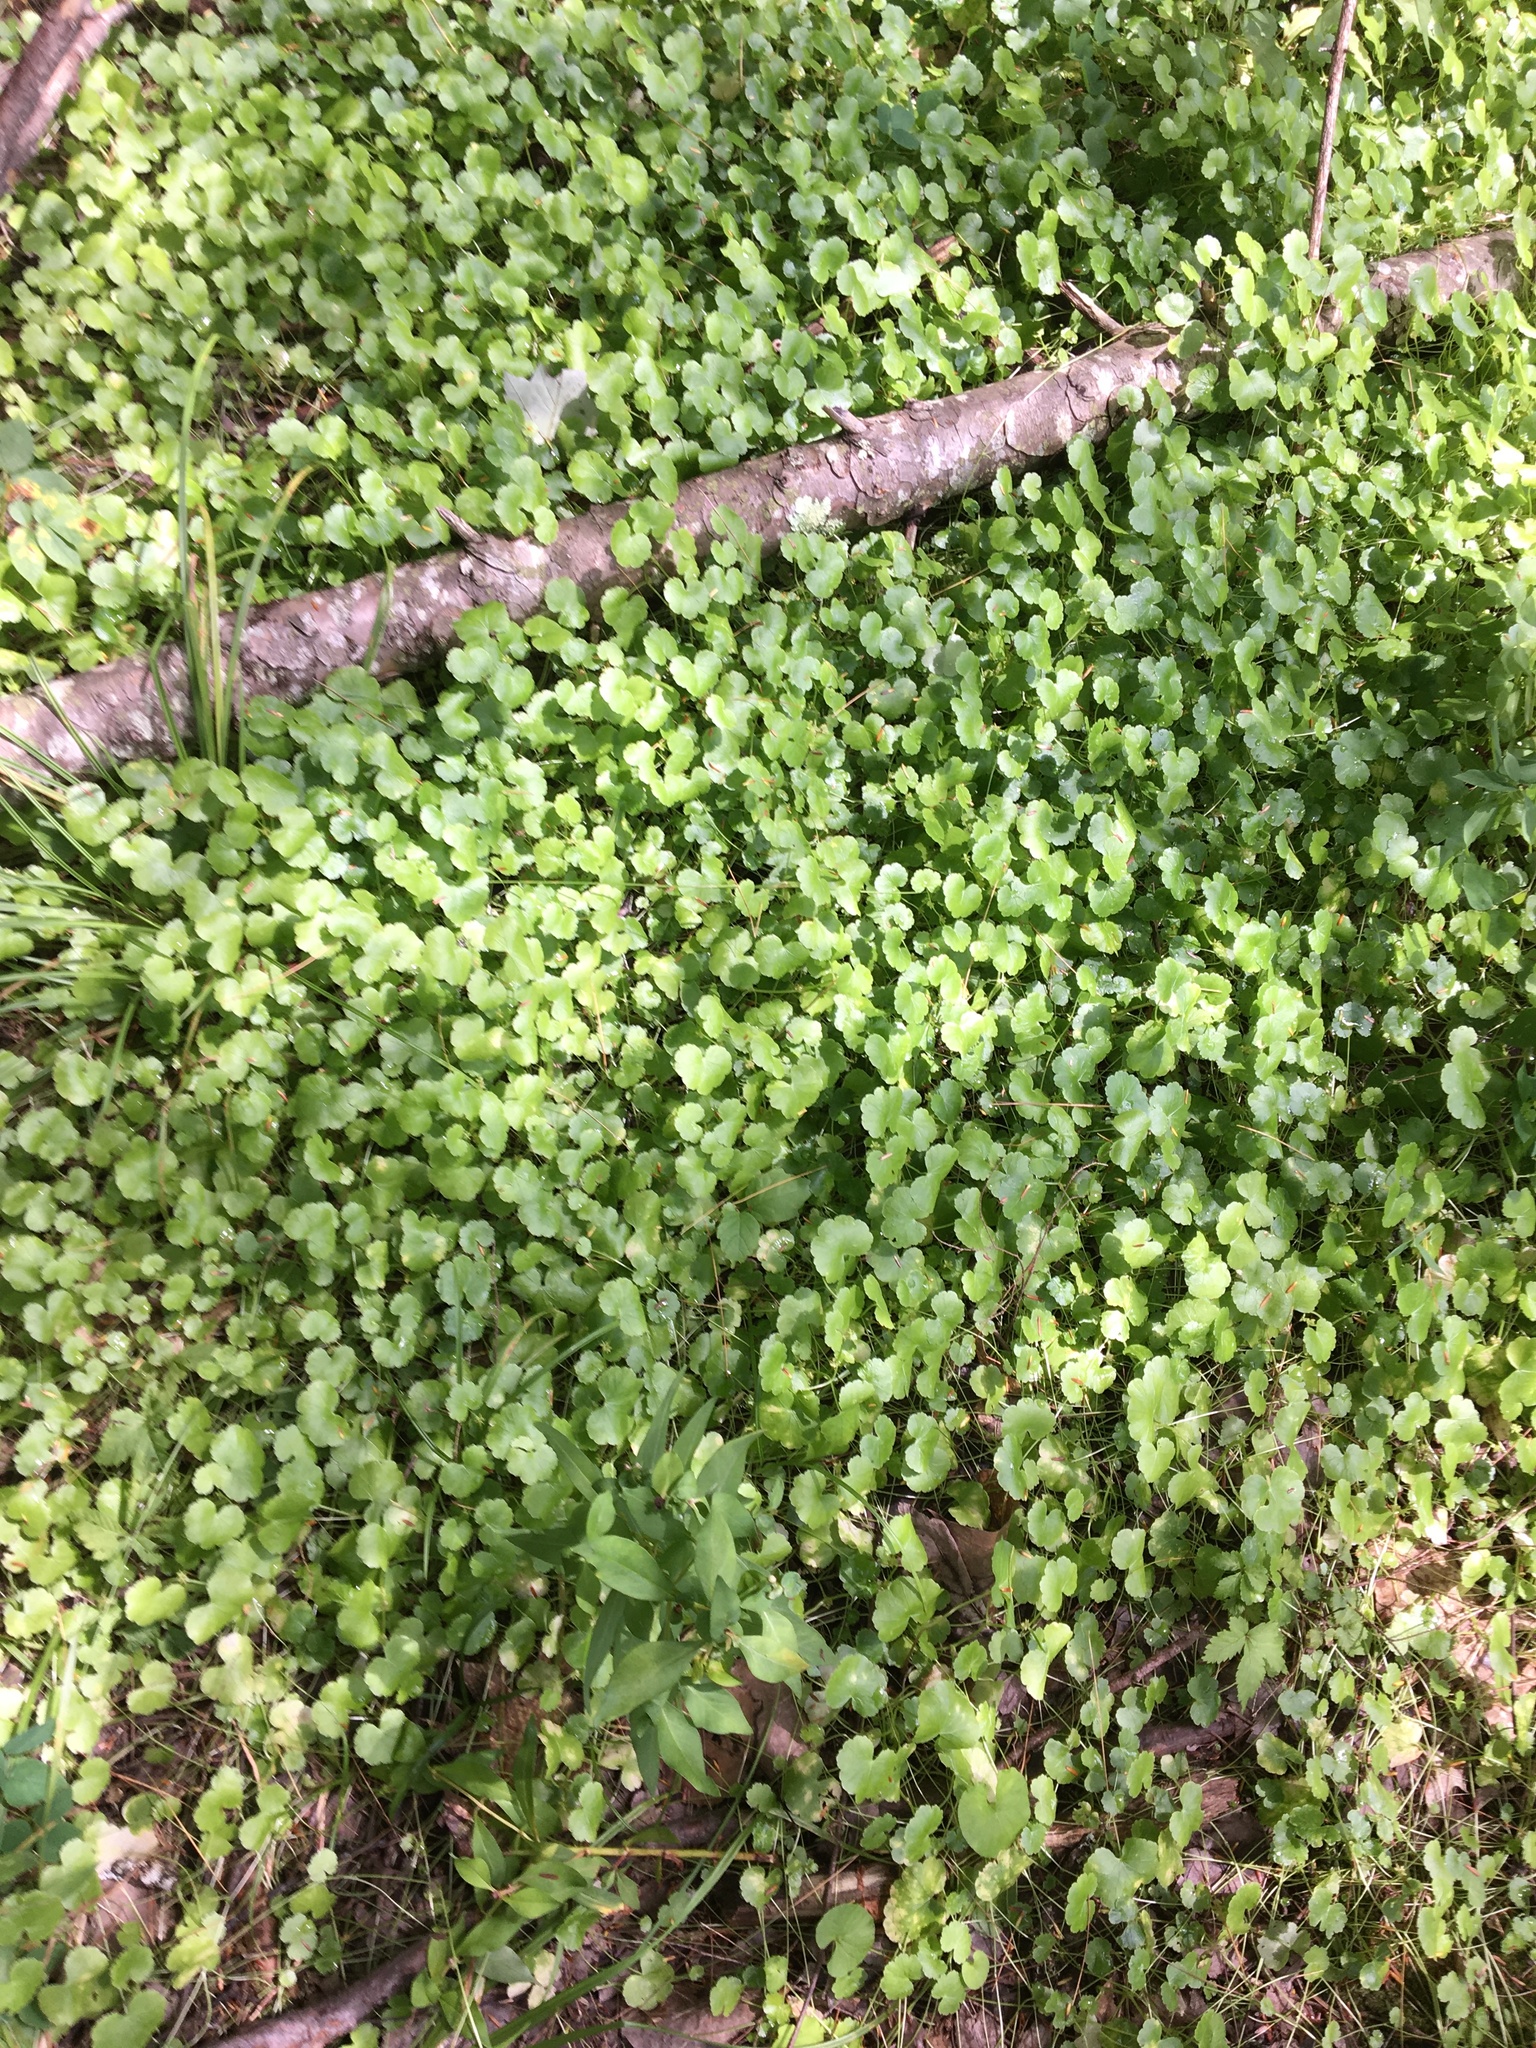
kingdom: Plantae
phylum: Tracheophyta
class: Magnoliopsida
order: Apiales
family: Araliaceae
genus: Hydrocotyle
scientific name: Hydrocotyle americana
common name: American water-pennywort
